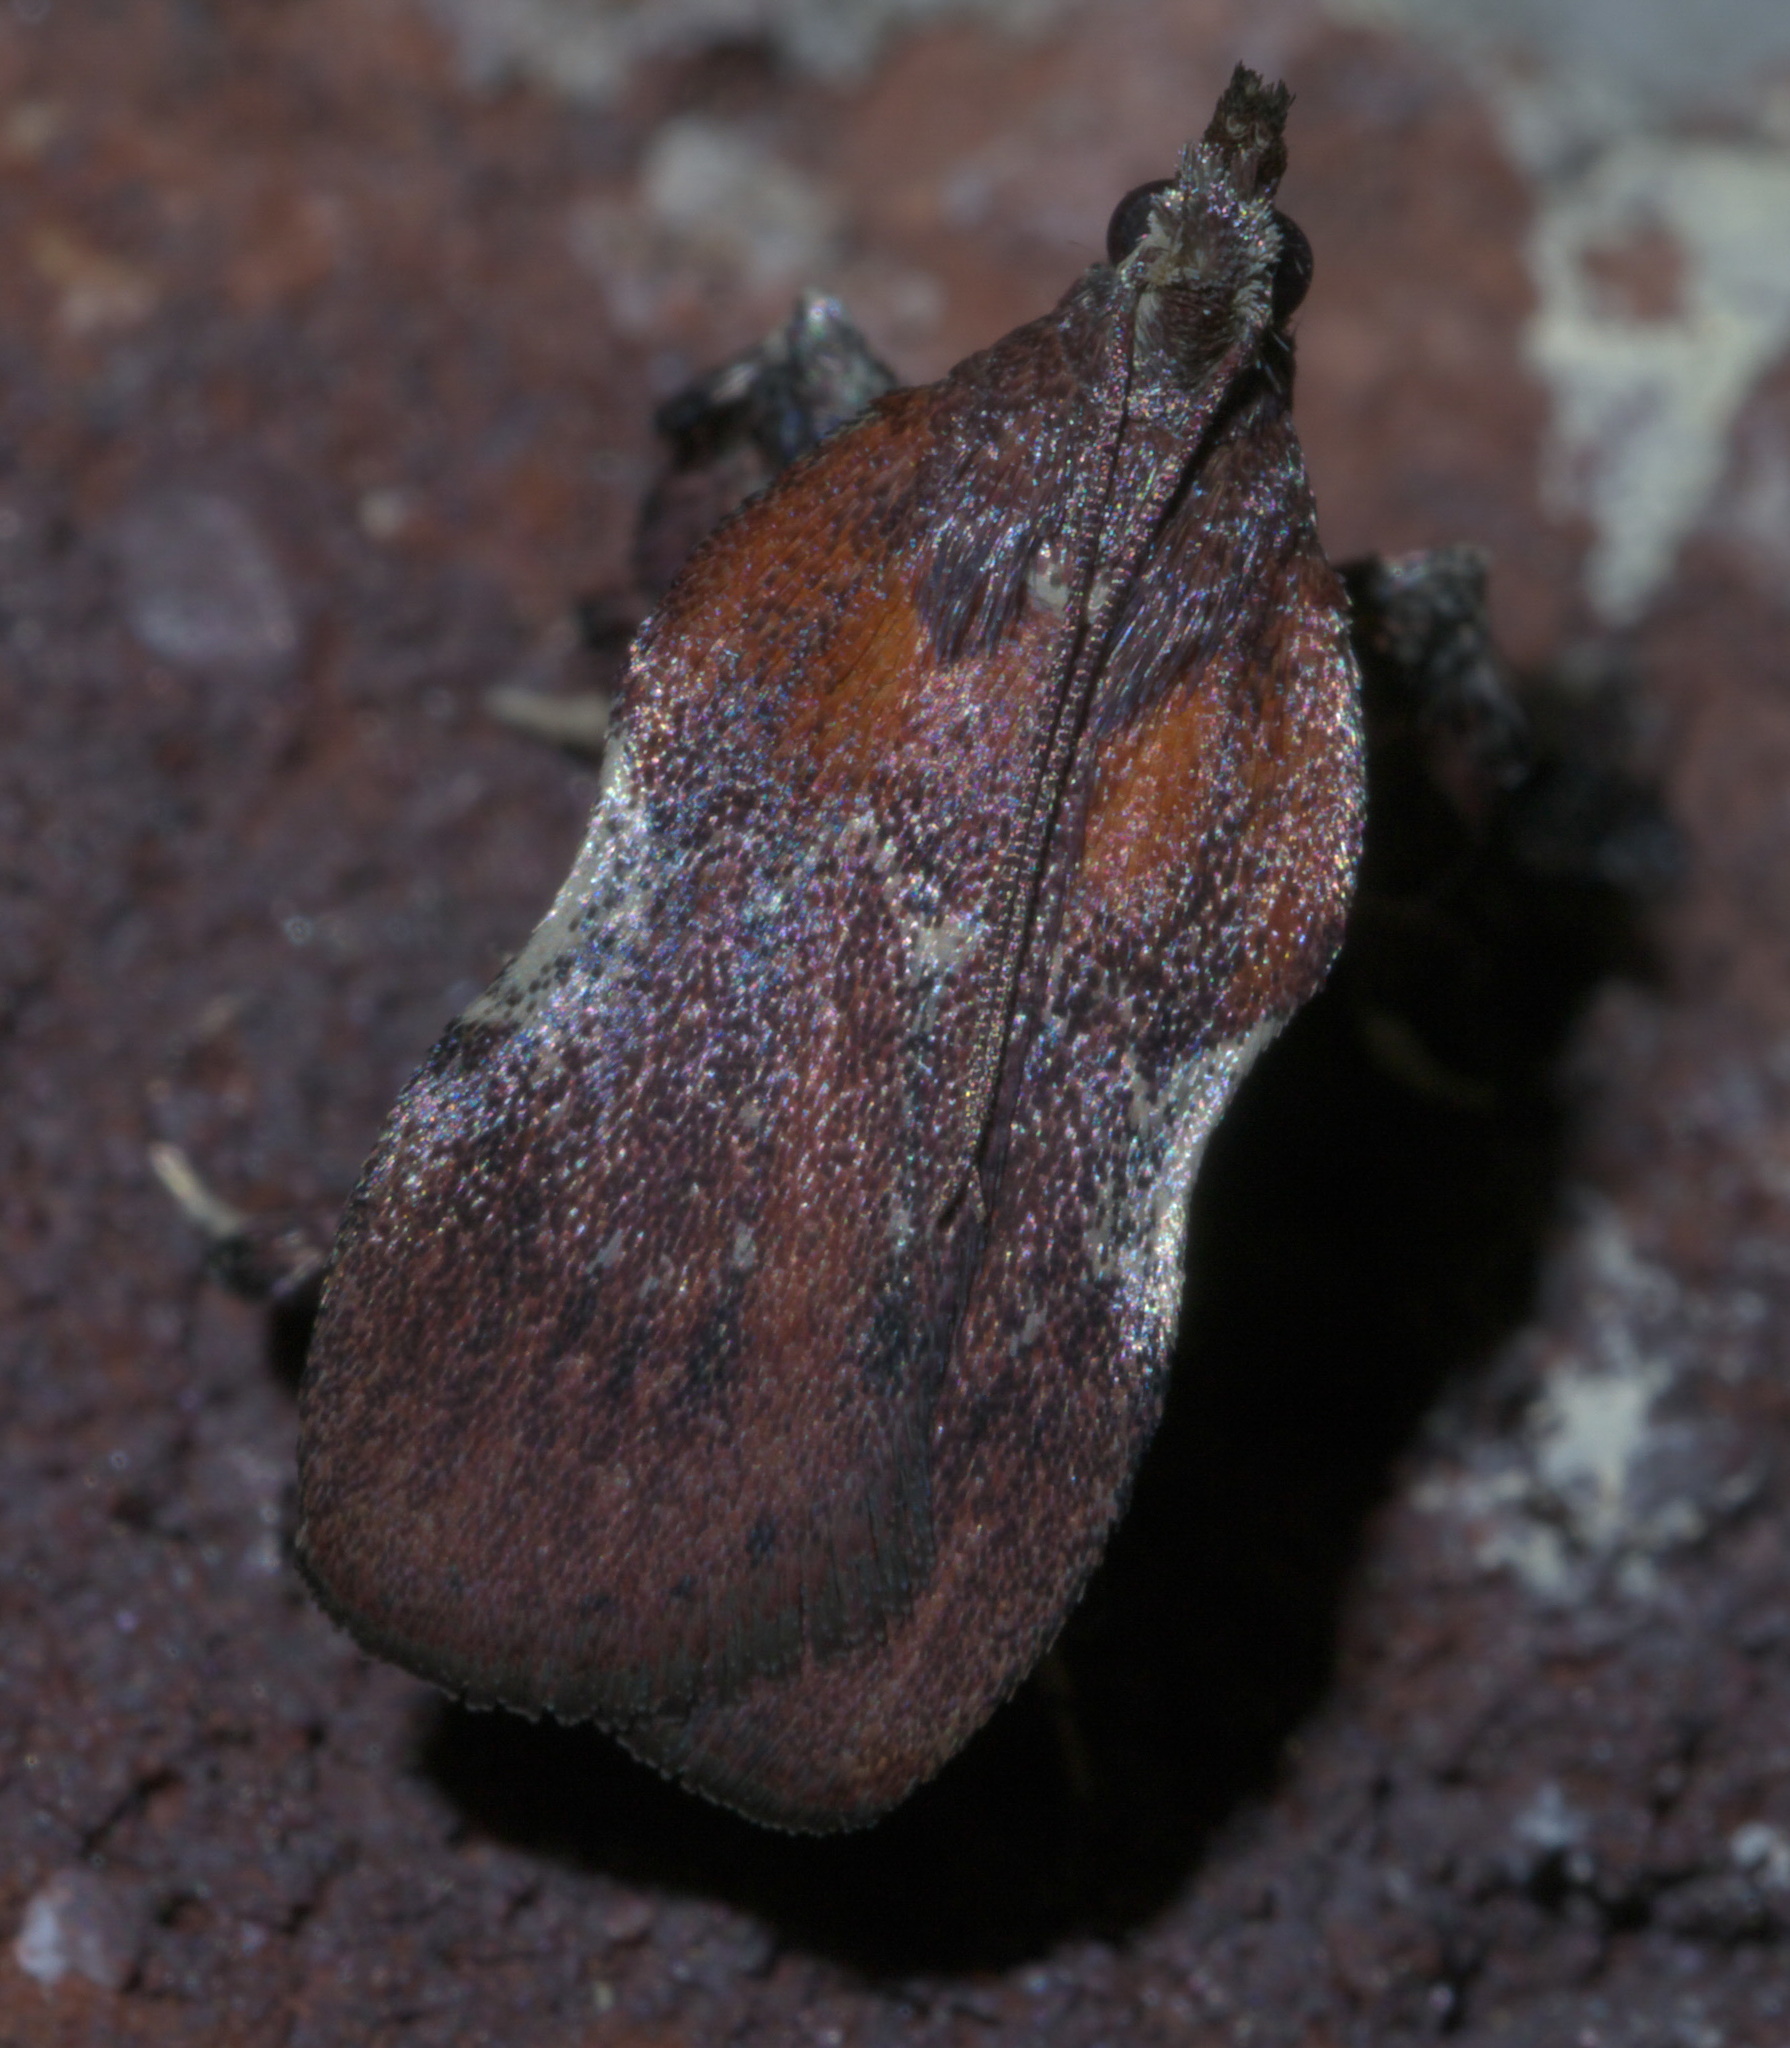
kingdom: Animalia
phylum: Arthropoda
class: Insecta
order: Lepidoptera
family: Pyralidae
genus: Galasa
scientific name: Galasa nigrinodis
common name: Boxwood leaftier moth
